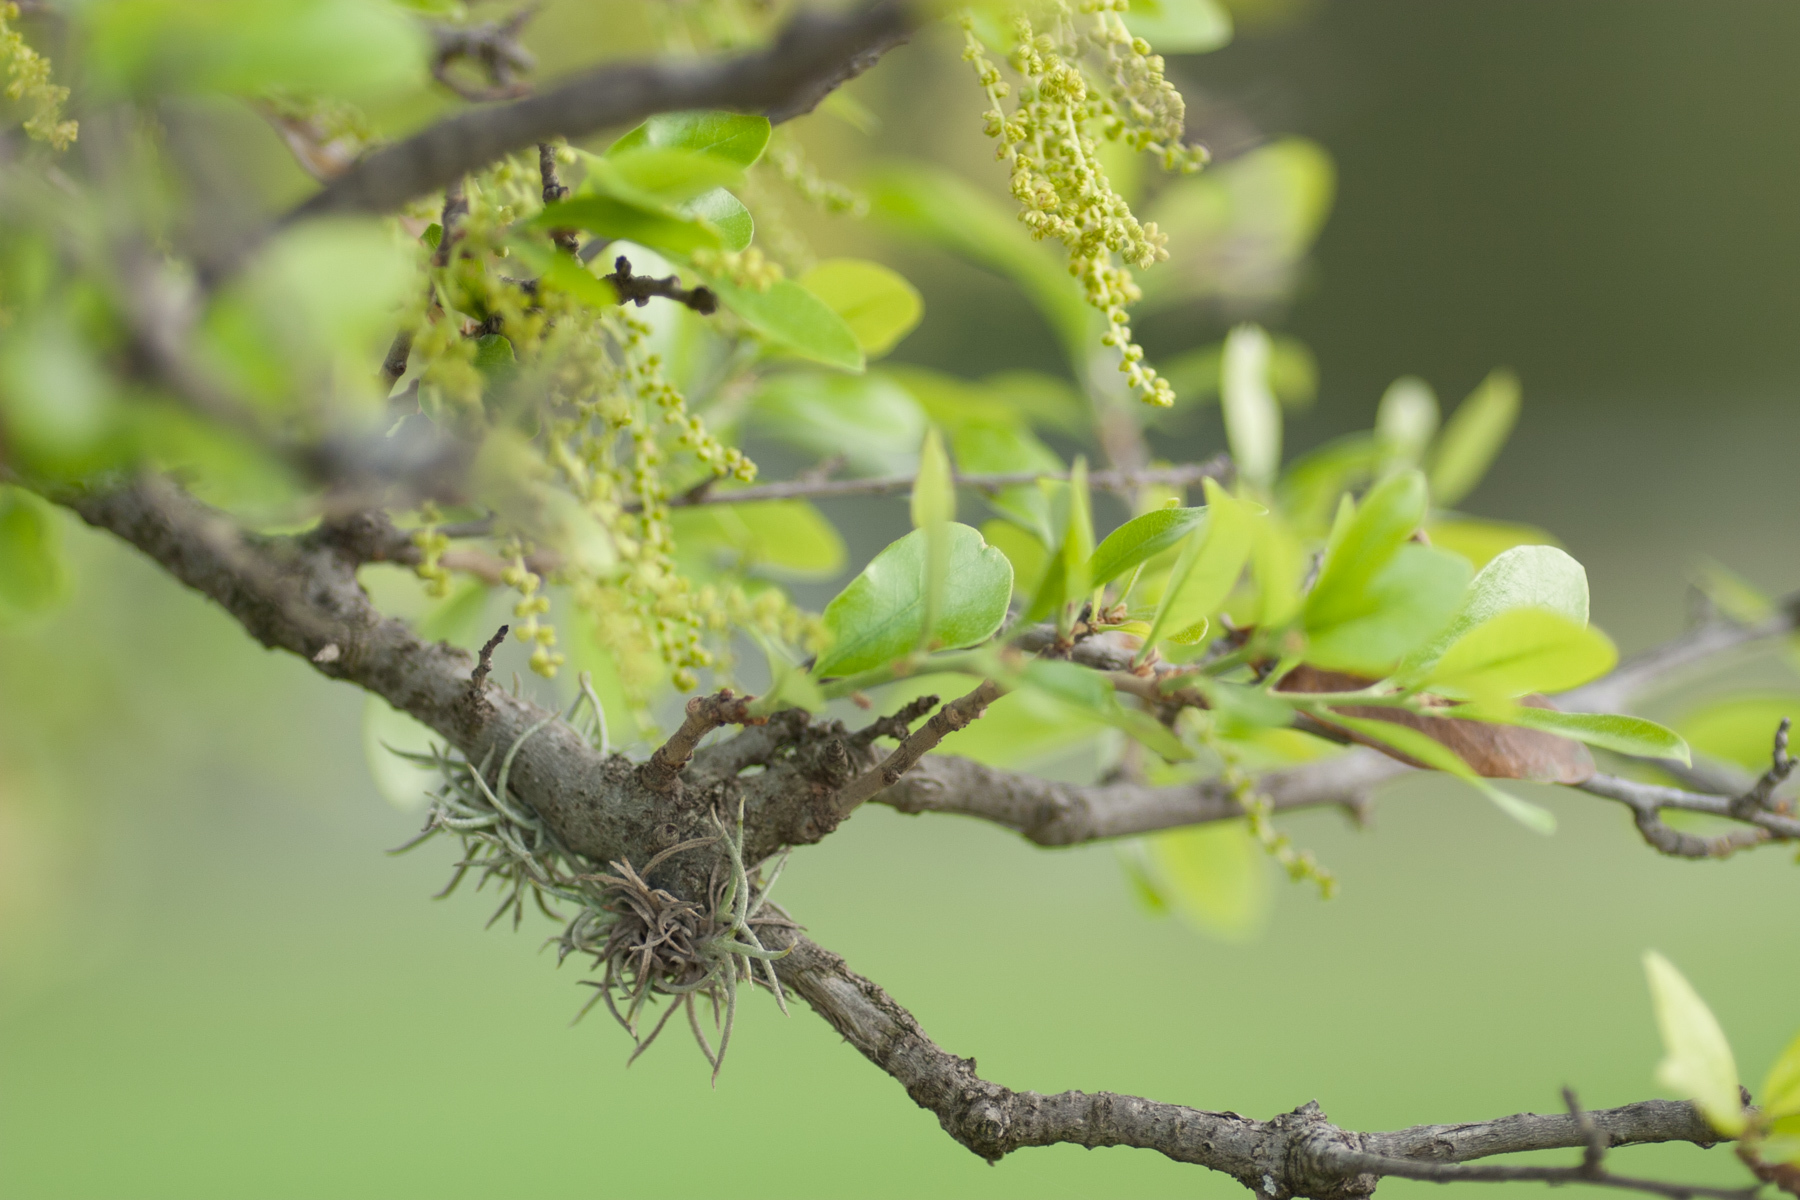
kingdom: Plantae
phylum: Tracheophyta
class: Liliopsida
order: Poales
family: Bromeliaceae
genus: Tillandsia
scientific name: Tillandsia recurvata
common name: Small ballmoss
